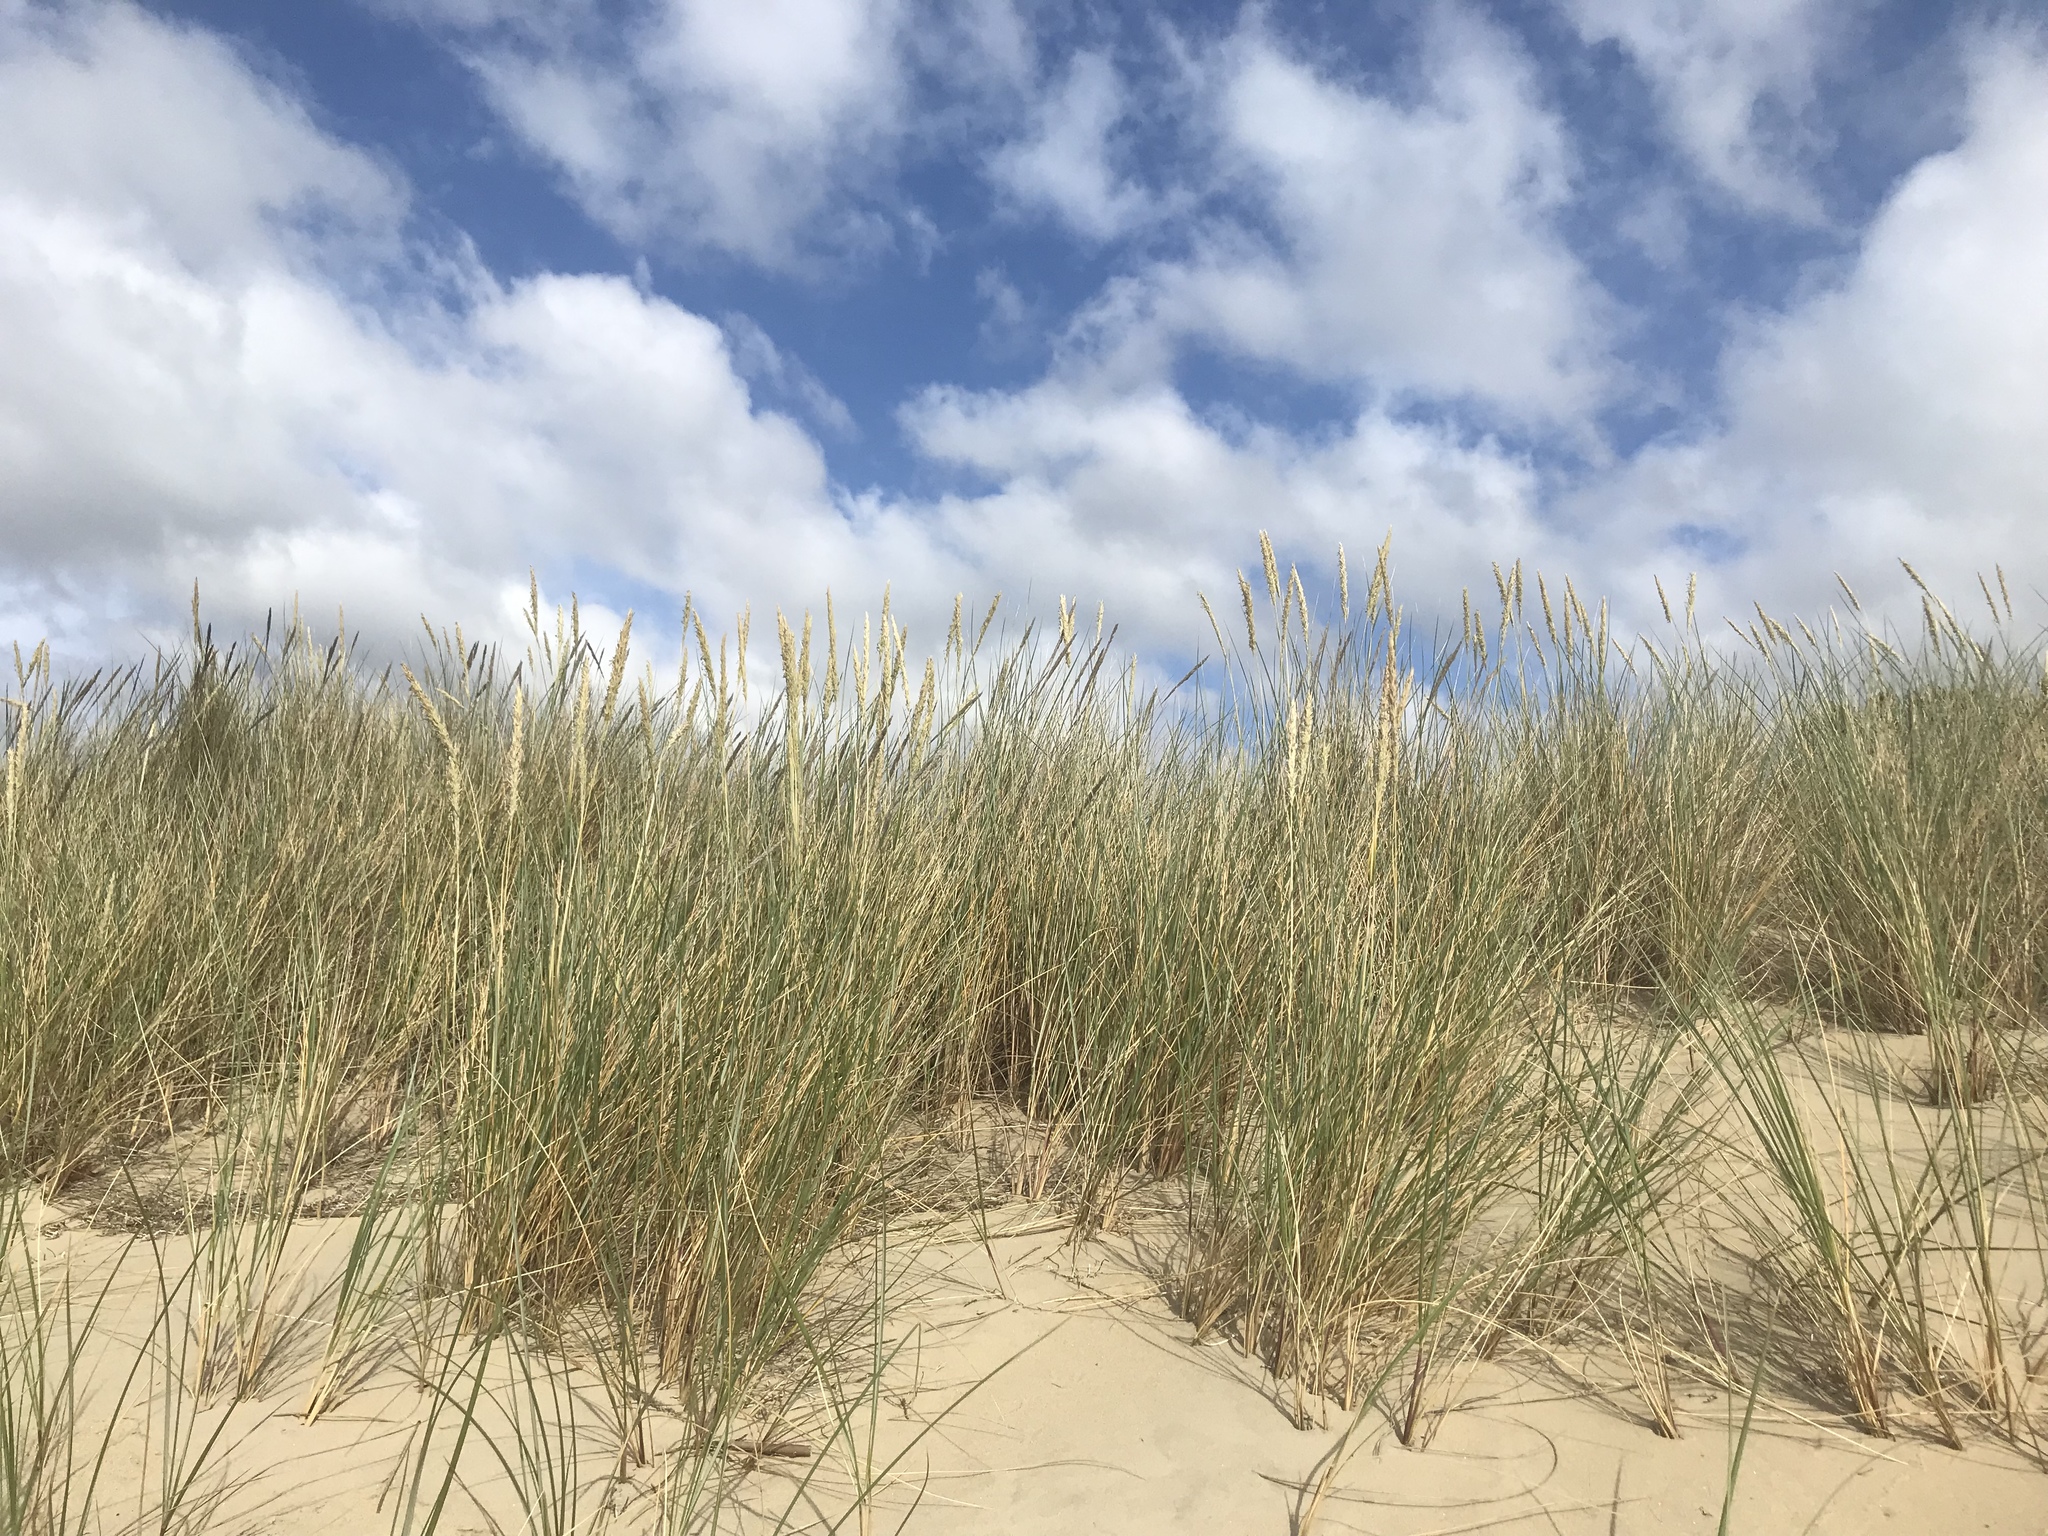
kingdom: Plantae
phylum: Tracheophyta
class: Liliopsida
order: Poales
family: Poaceae
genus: Calamagrostis
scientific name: Calamagrostis arenaria
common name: European beachgrass
